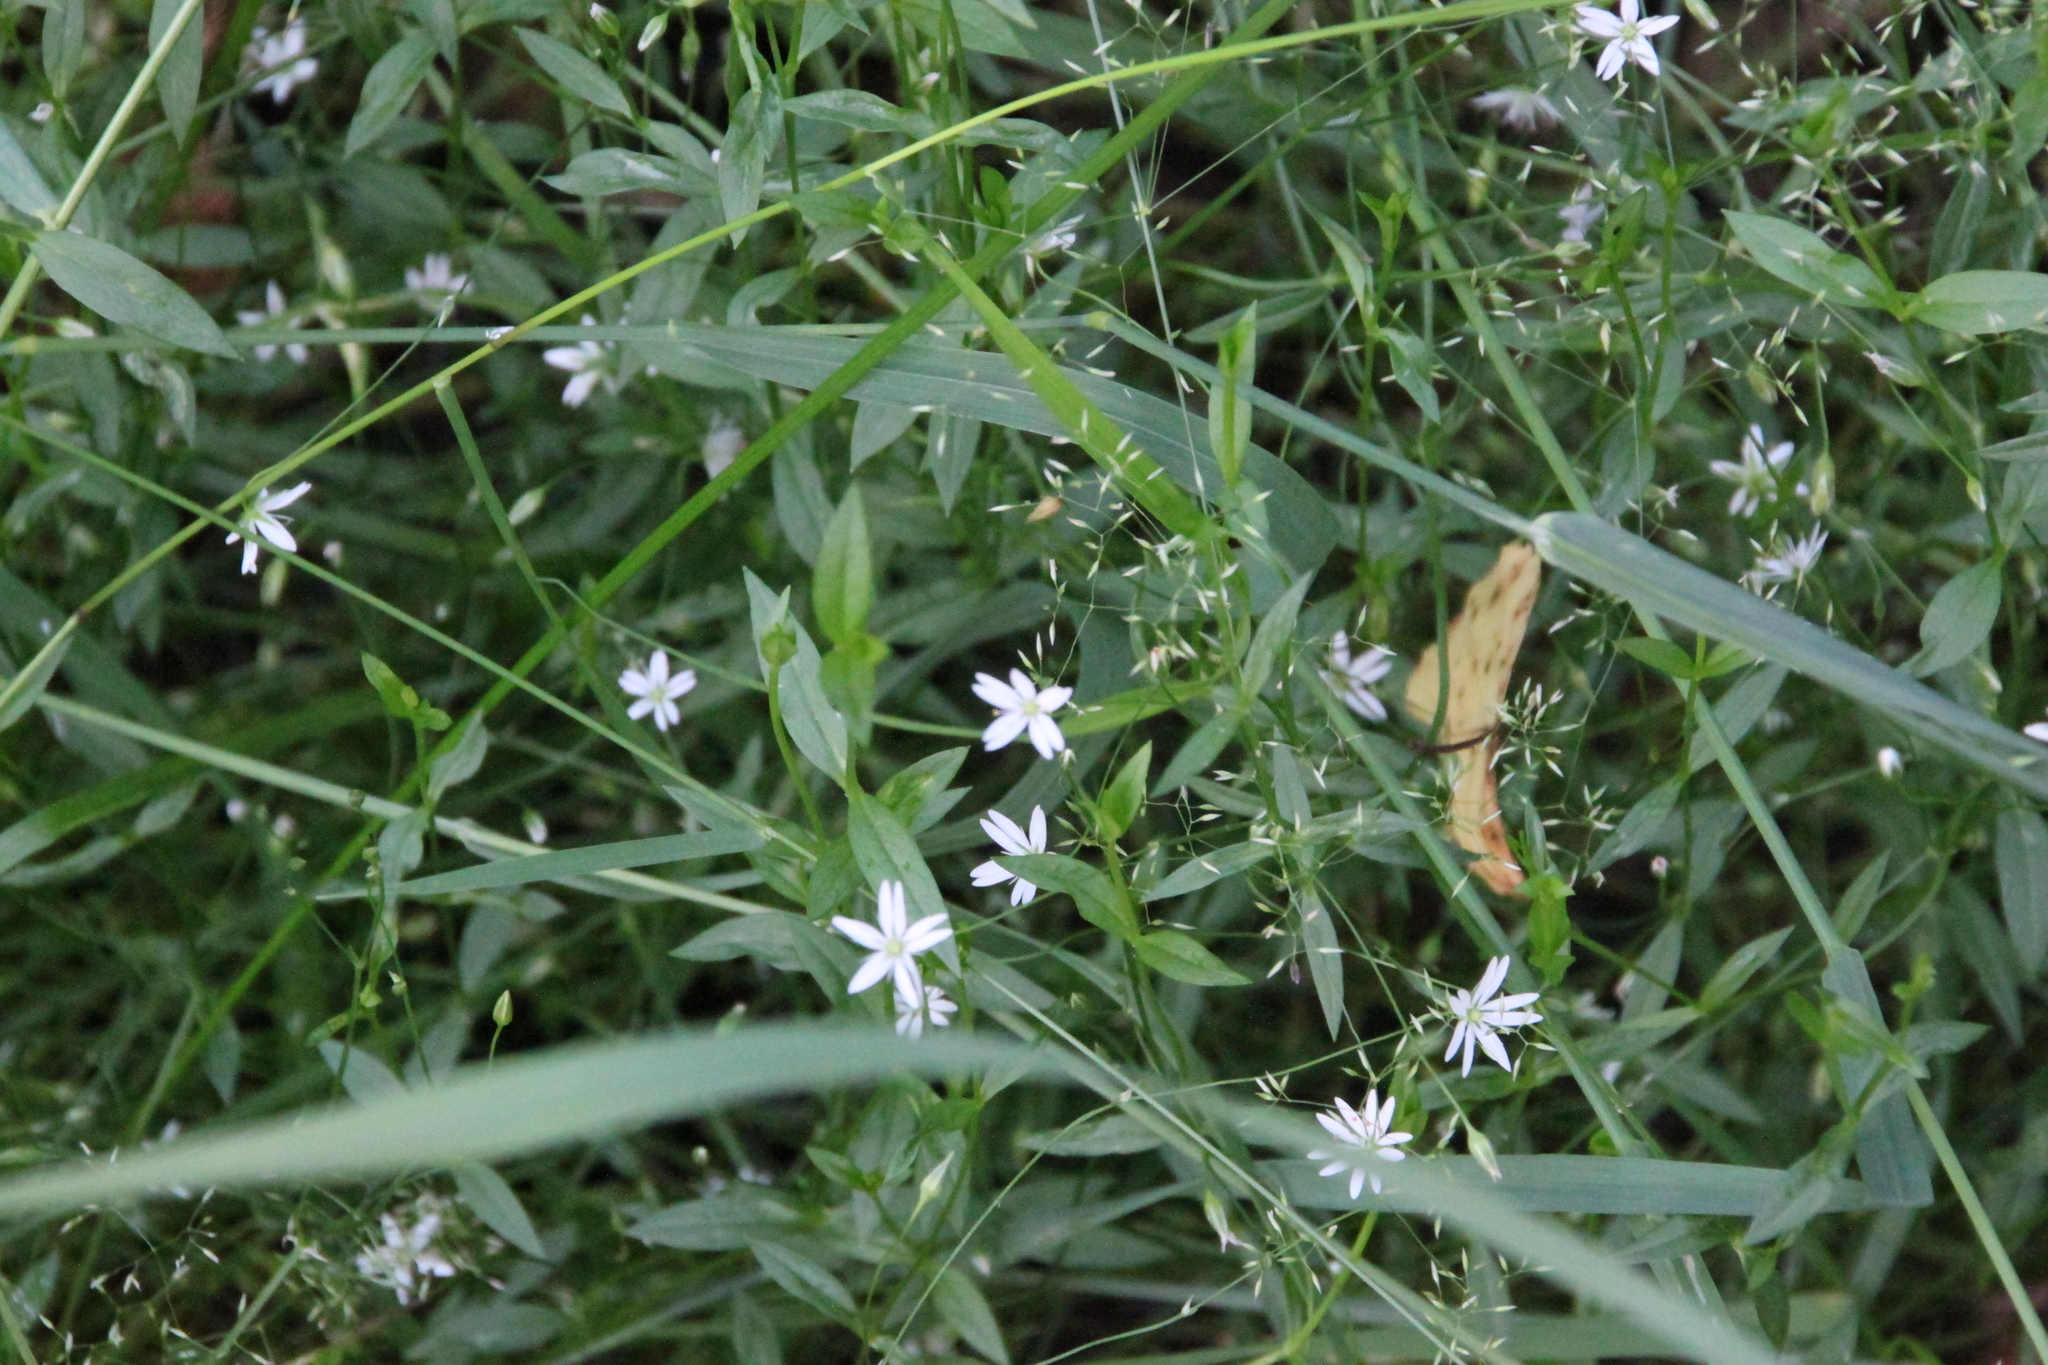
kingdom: Plantae
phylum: Tracheophyta
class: Magnoliopsida
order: Caryophyllales
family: Caryophyllaceae
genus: Stellaria
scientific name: Stellaria graminea
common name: Grass-like starwort
